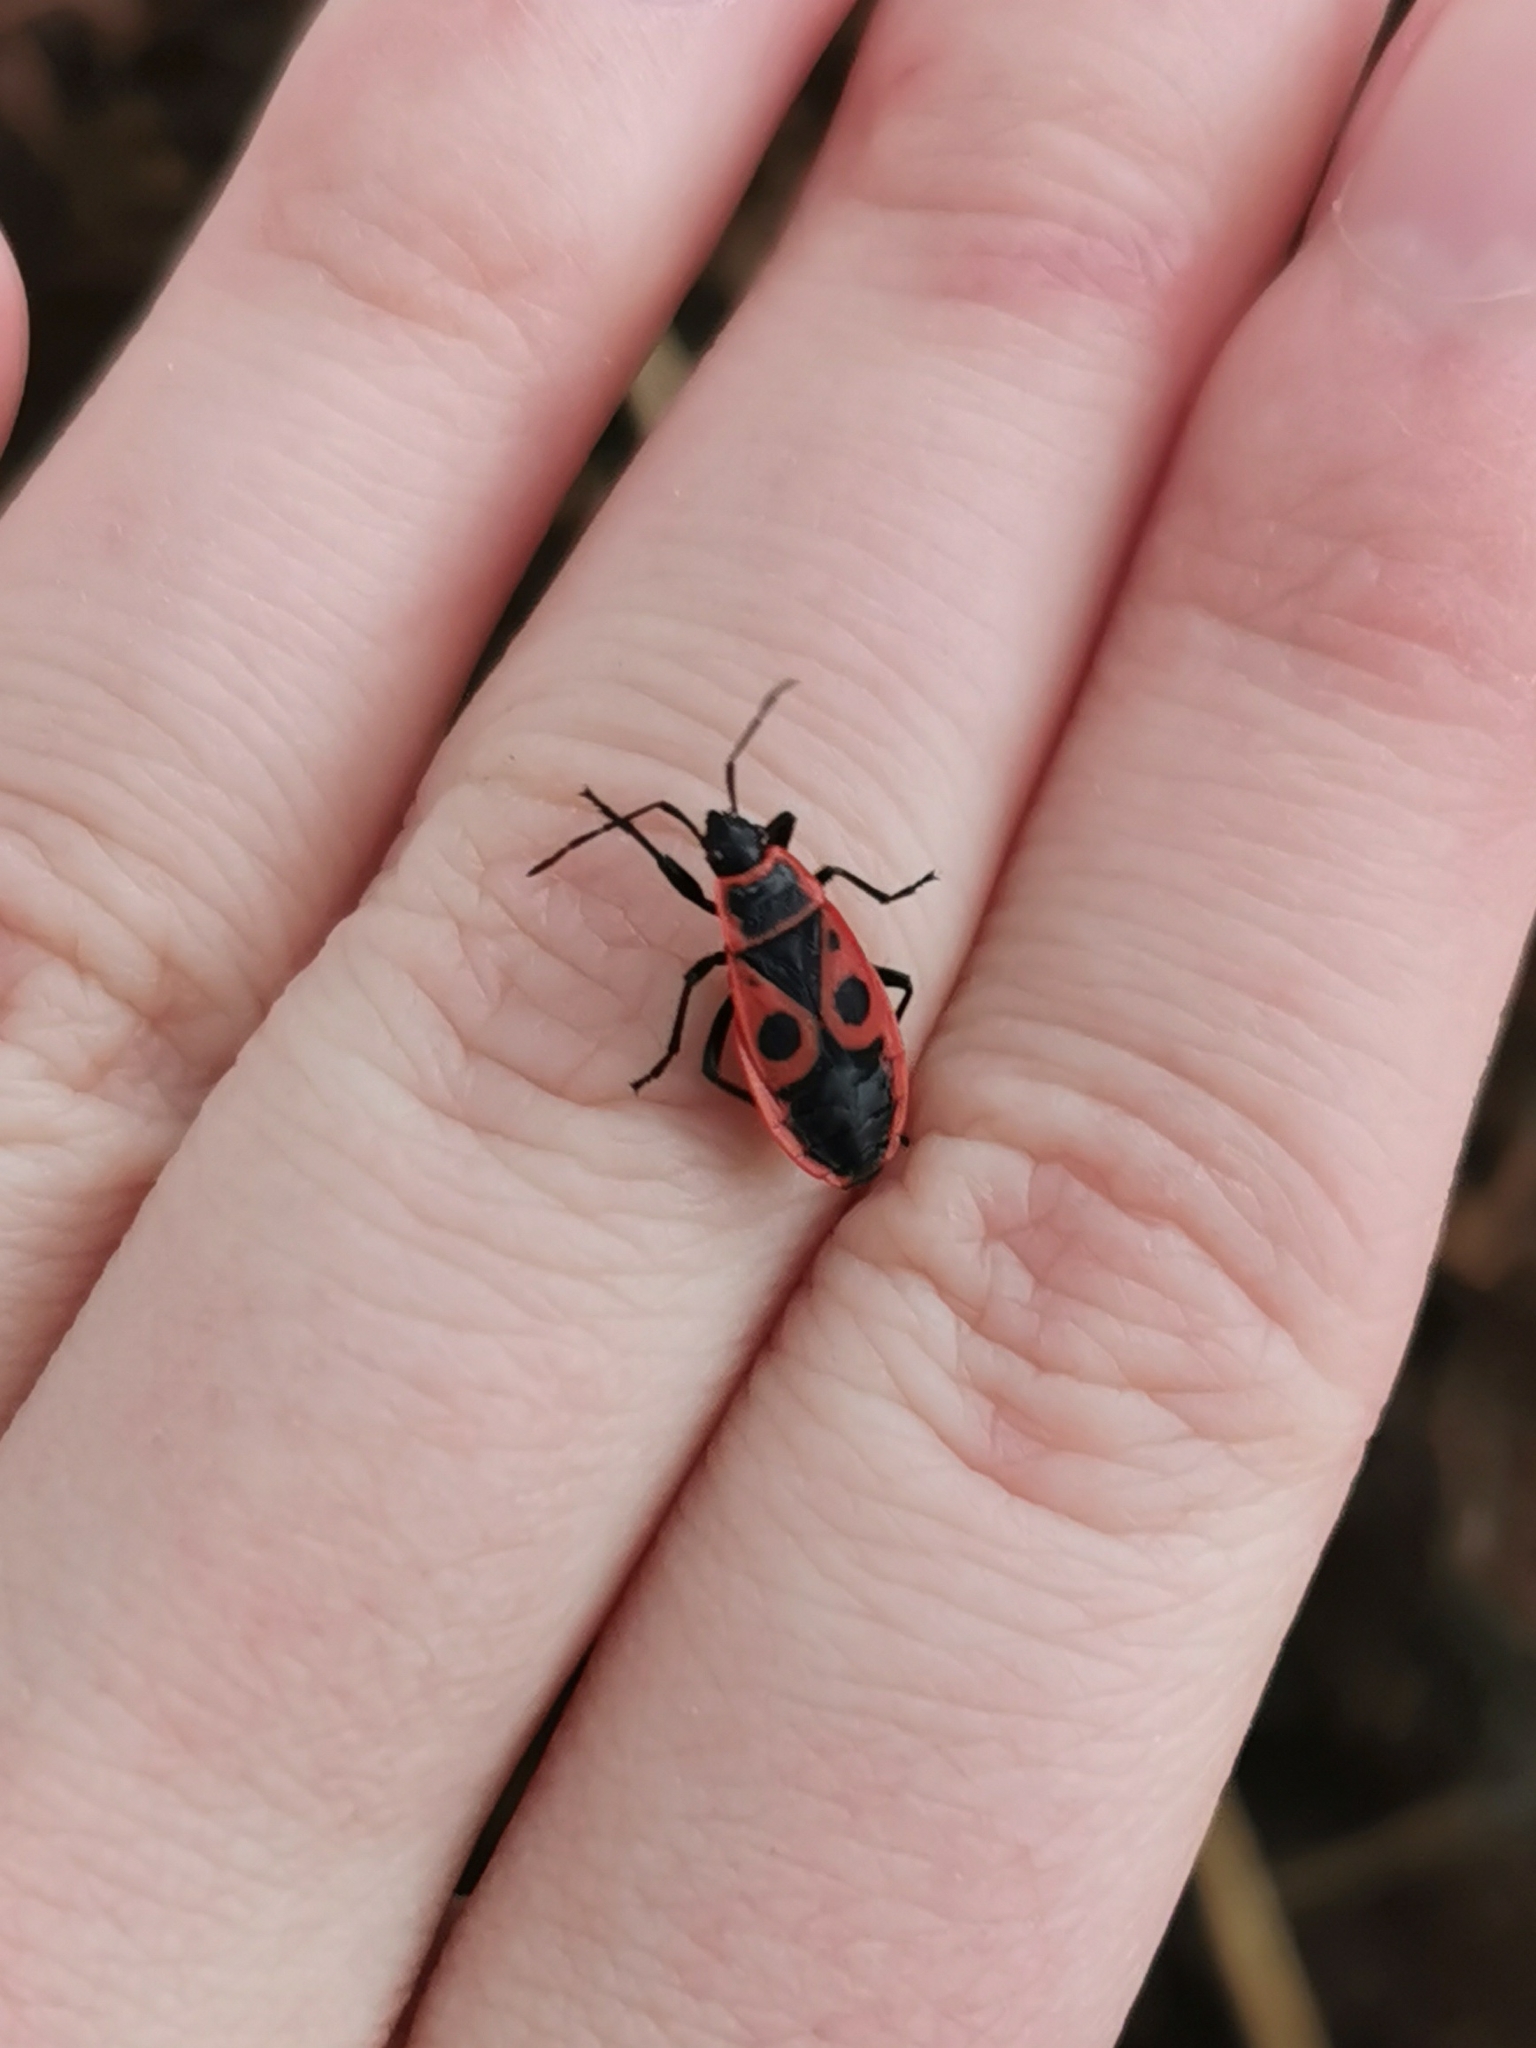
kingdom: Animalia
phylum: Arthropoda
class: Insecta
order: Hemiptera
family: Pyrrhocoridae
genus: Pyrrhocoris
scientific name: Pyrrhocoris apterus
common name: Firebug
